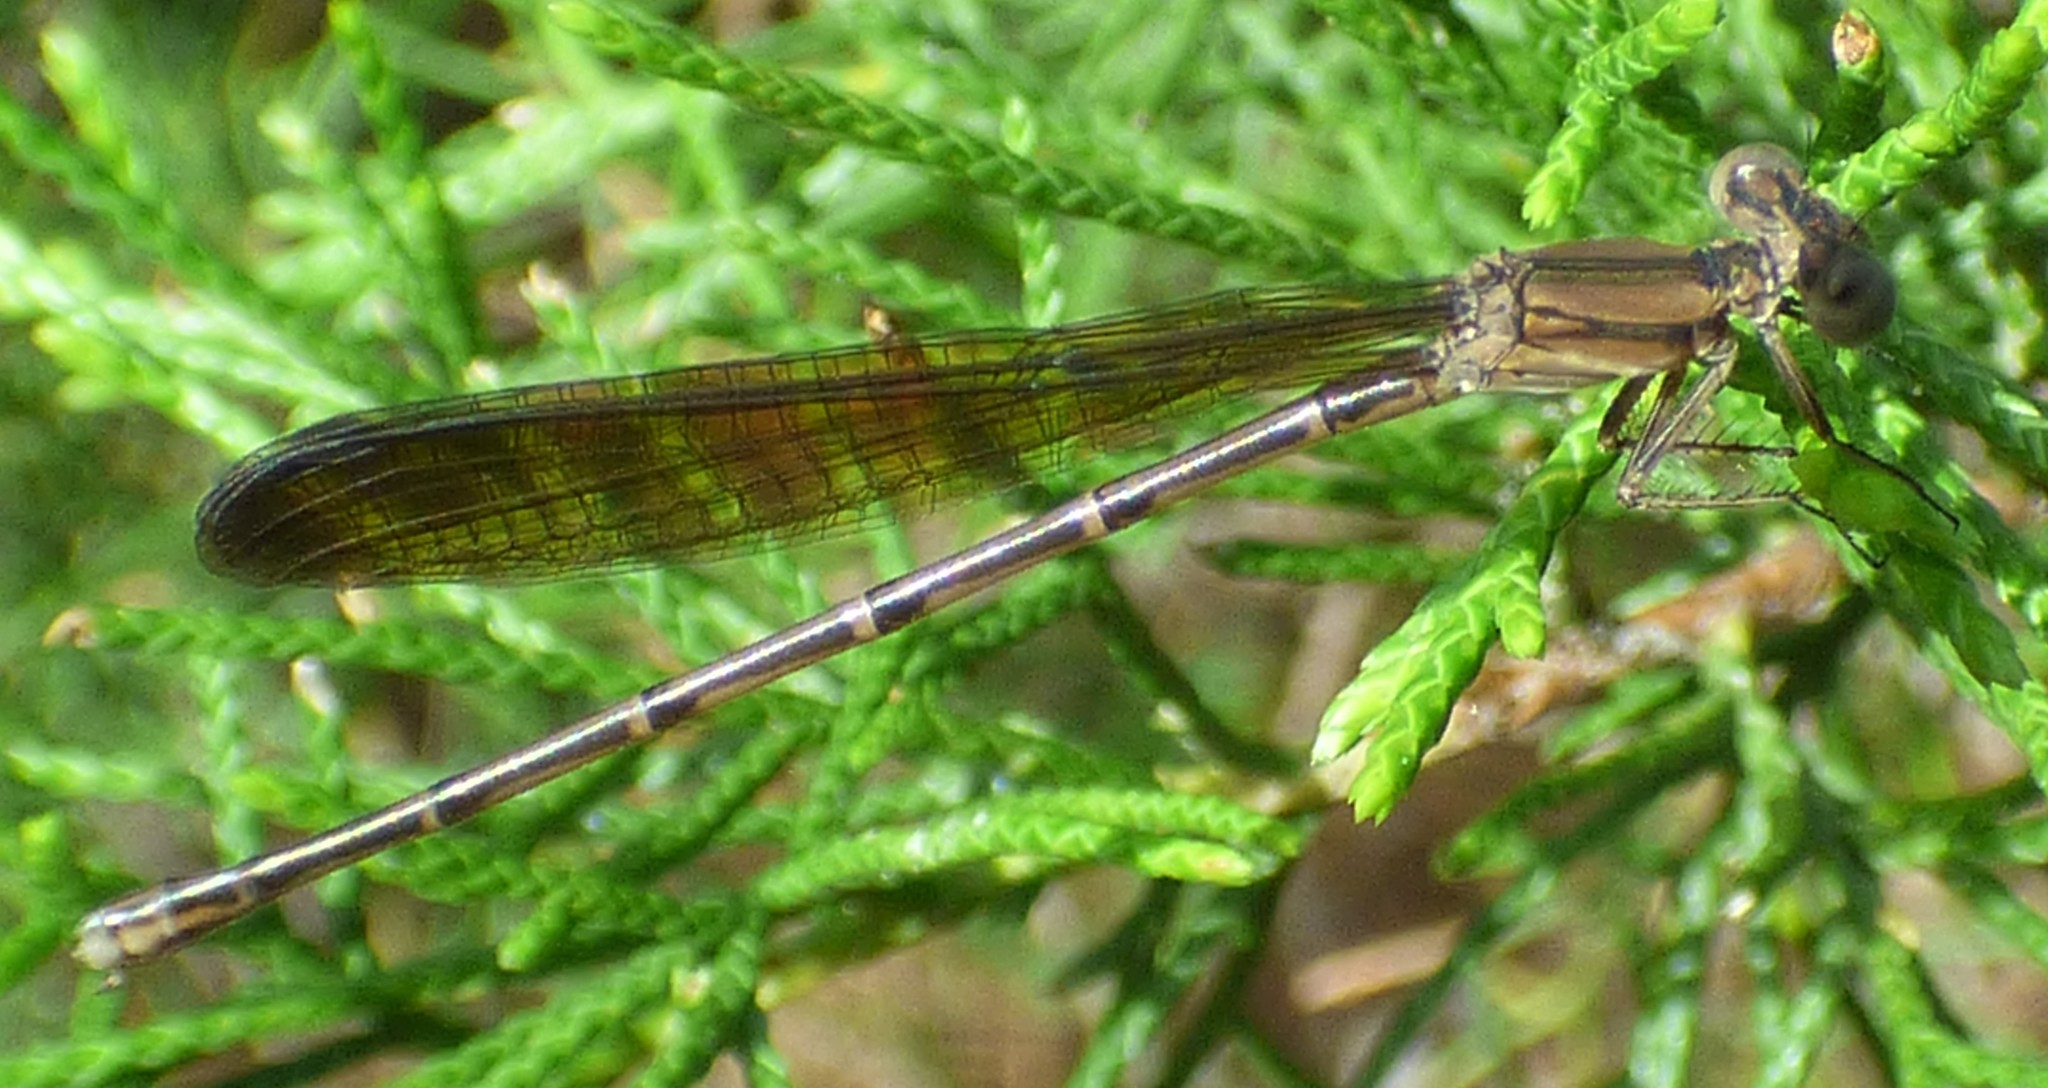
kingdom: Animalia
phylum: Arthropoda
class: Insecta
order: Odonata
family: Coenagrionidae
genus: Argia
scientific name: Argia fumipennis
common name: Variable dancer
